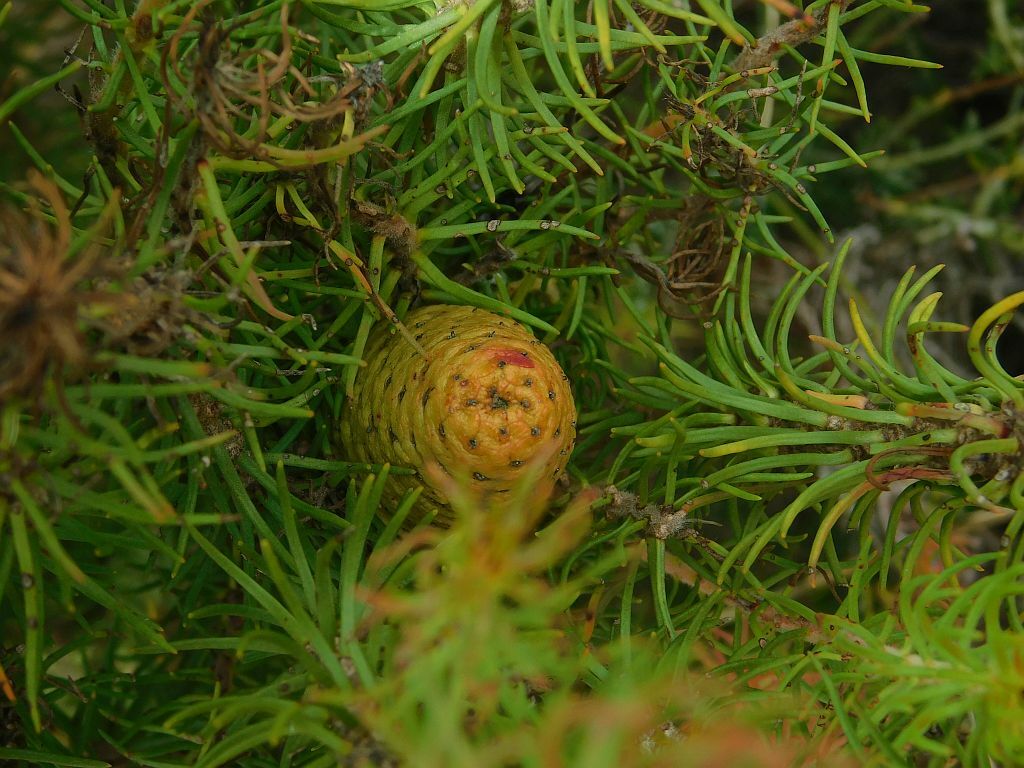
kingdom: Plantae
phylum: Tracheophyta
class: Magnoliopsida
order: Proteales
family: Proteaceae
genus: Leucadendron
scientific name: Leucadendron teretifolium
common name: Needle-leaf conebush
